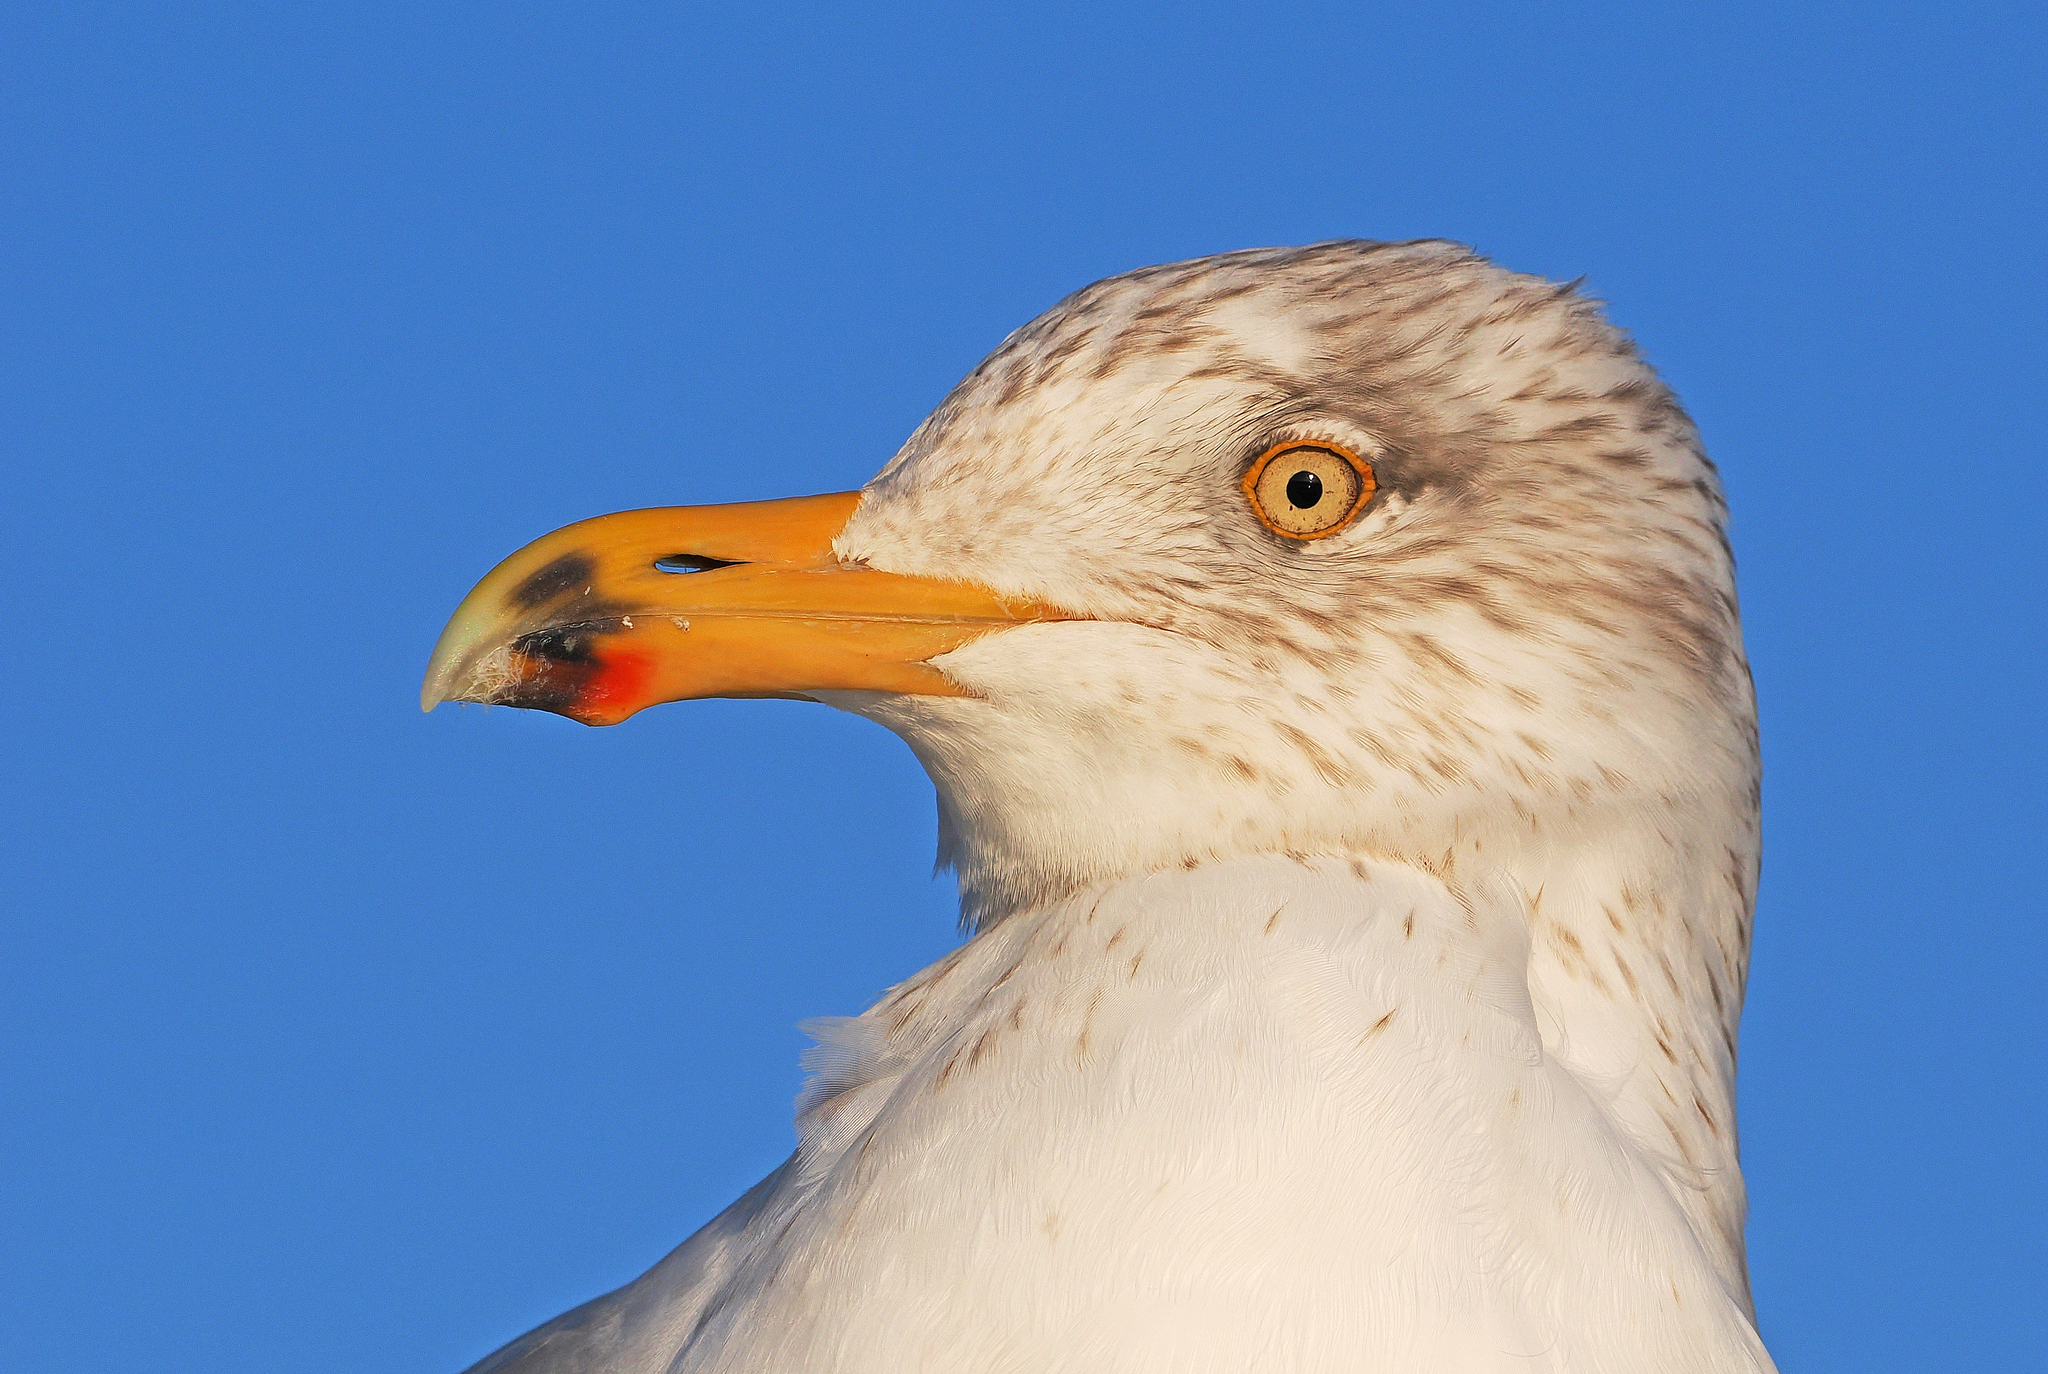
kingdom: Animalia
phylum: Chordata
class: Aves
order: Charadriiformes
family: Laridae
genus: Larus
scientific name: Larus argentatus
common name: Herring gull
